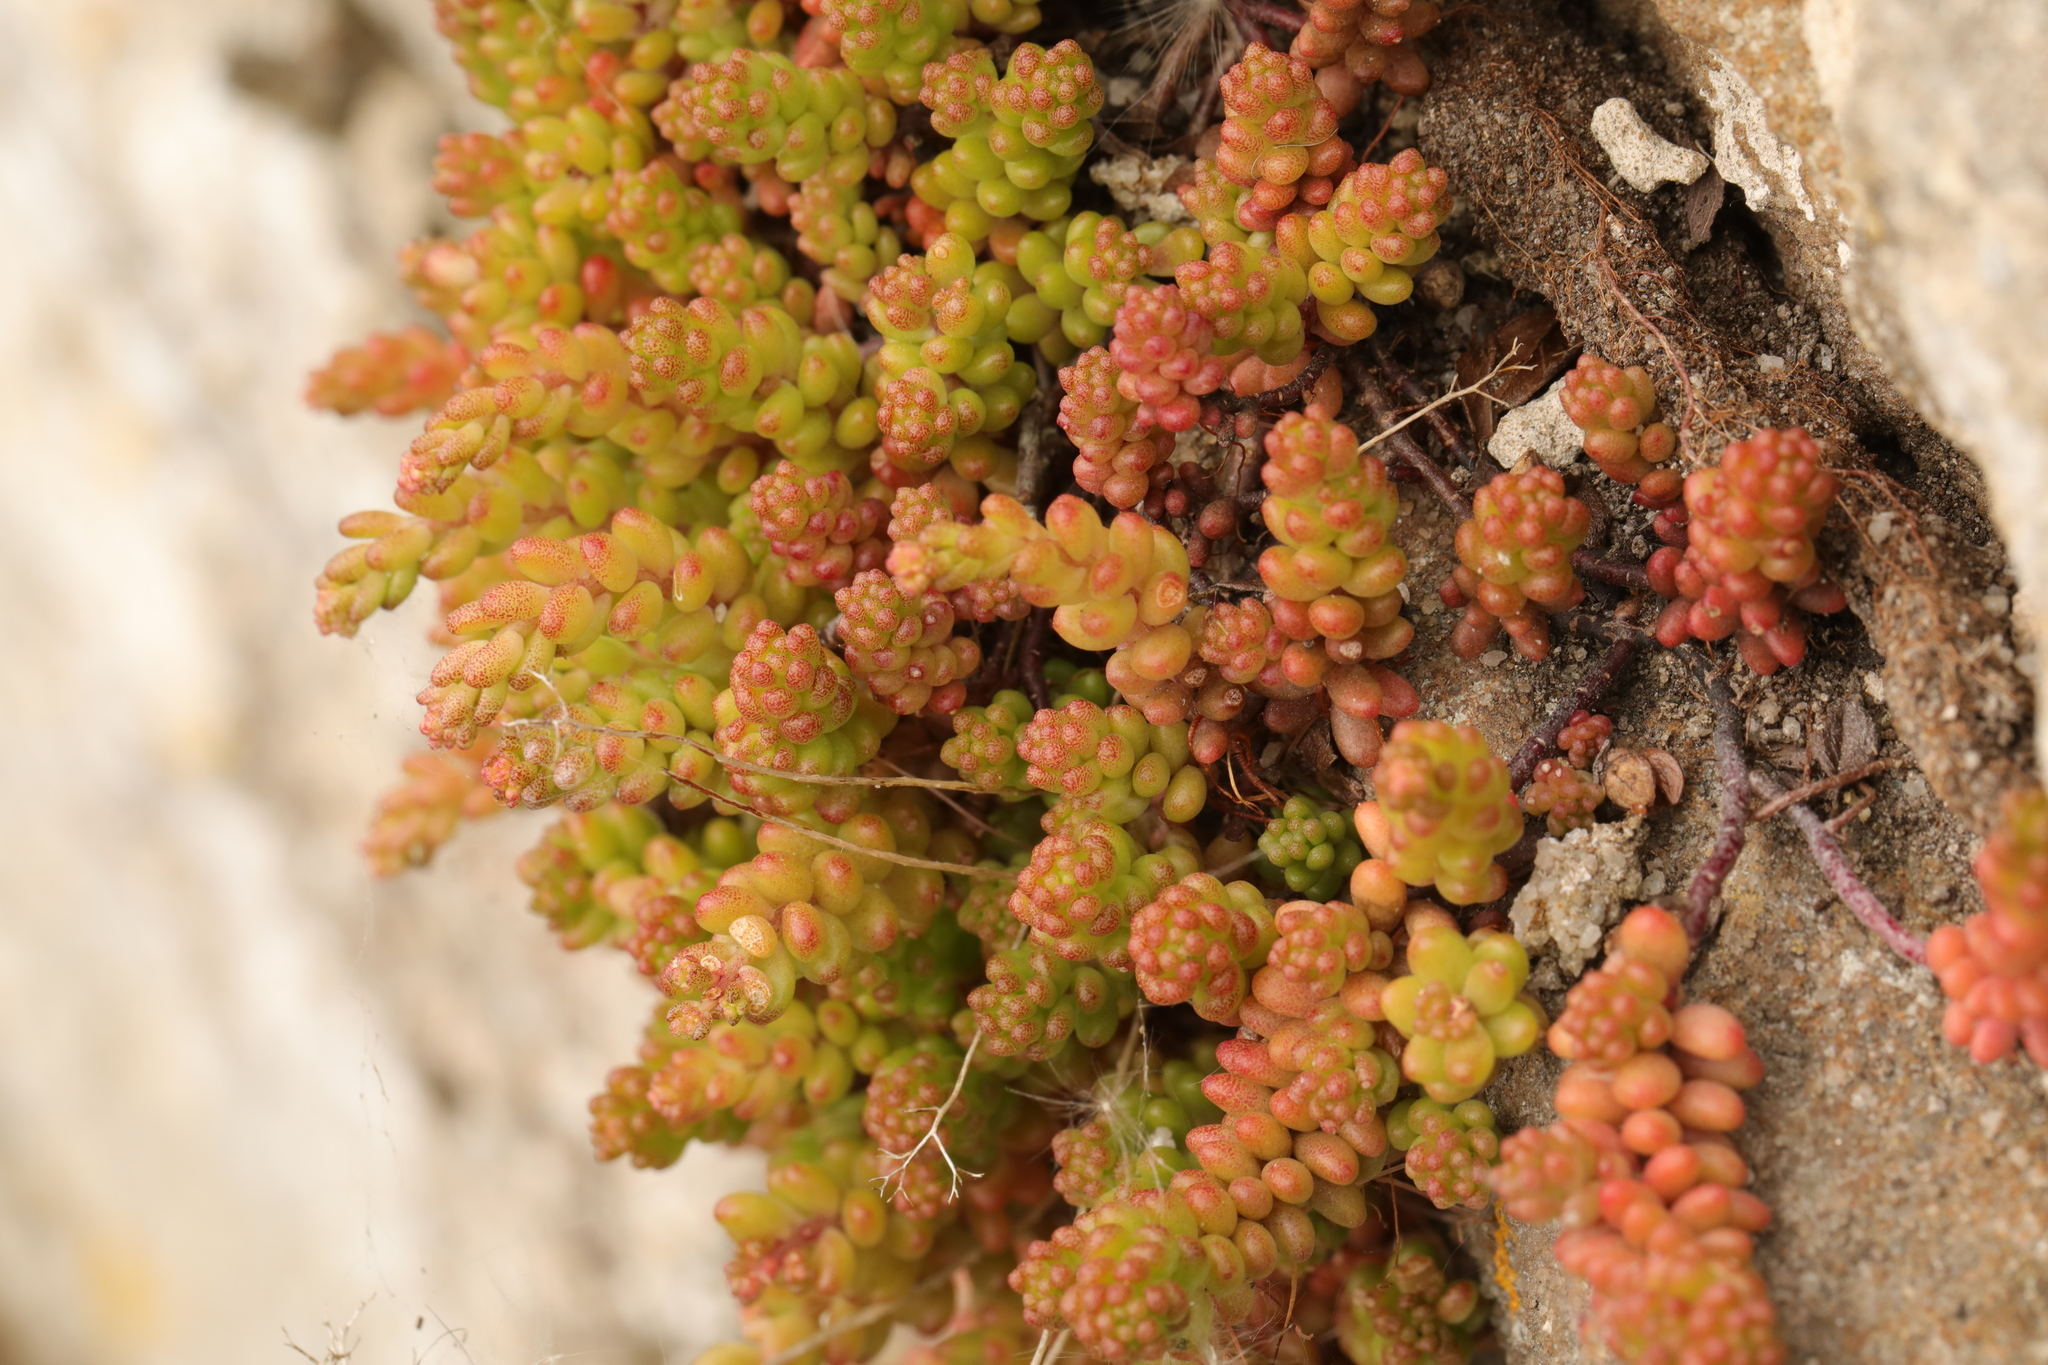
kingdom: Plantae
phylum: Tracheophyta
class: Magnoliopsida
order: Saxifragales
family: Crassulaceae
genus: Sedum
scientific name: Sedum album
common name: White stonecrop
